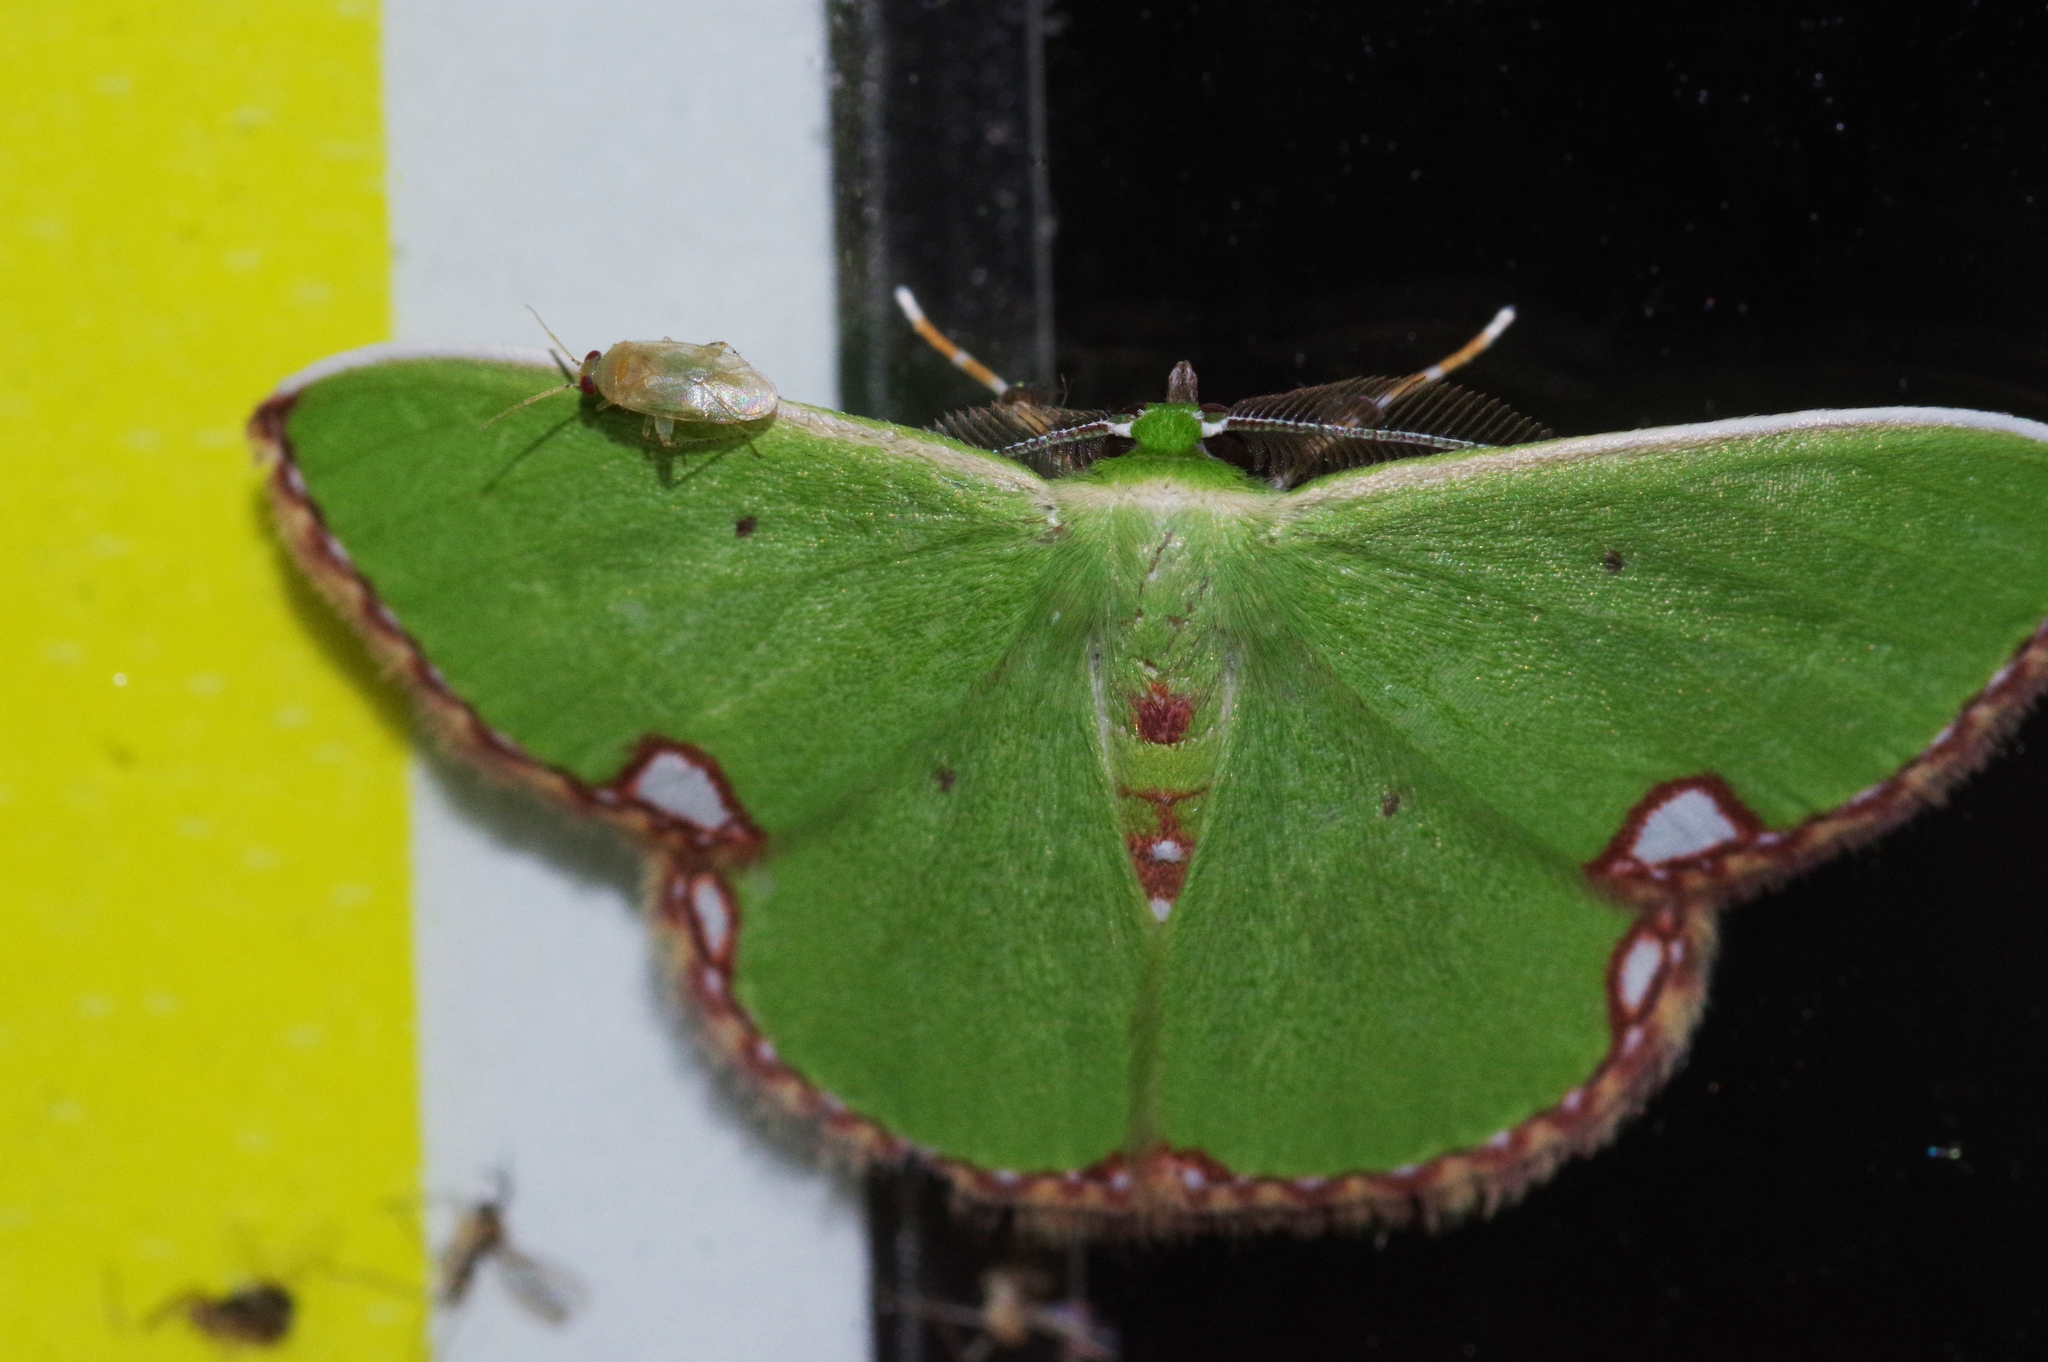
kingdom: Animalia
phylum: Arthropoda
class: Insecta
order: Lepidoptera
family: Geometridae
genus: Comibaena
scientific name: Comibaena procumbaria
